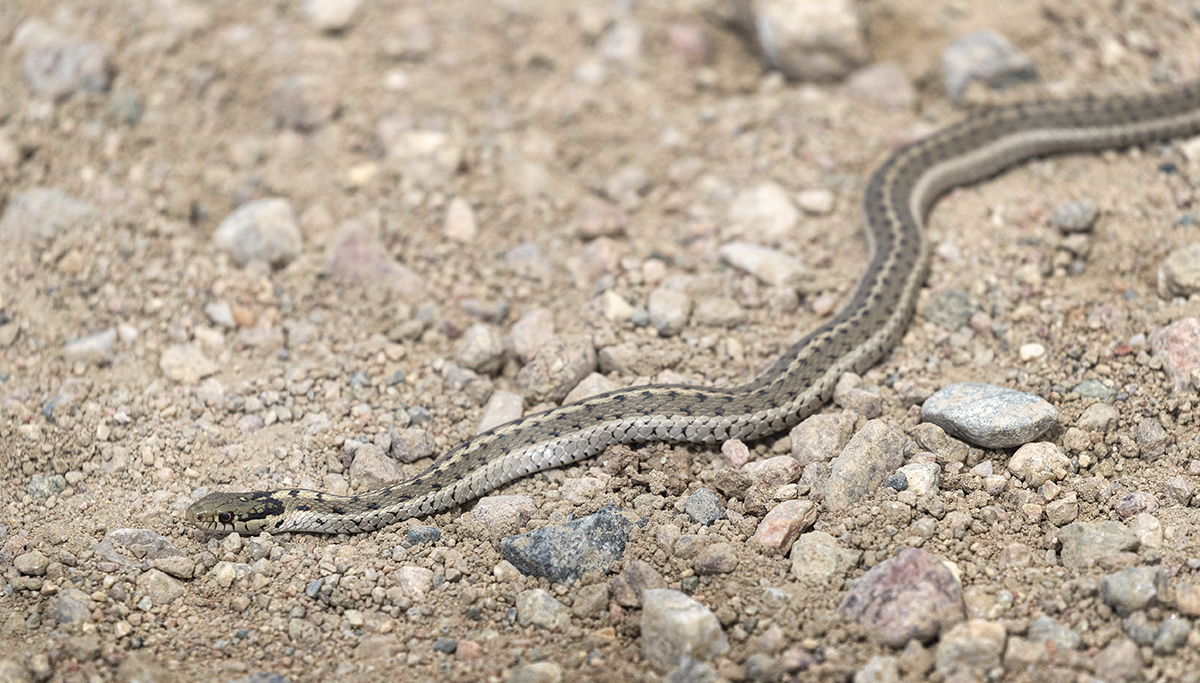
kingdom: Animalia
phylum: Chordata
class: Squamata
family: Colubridae
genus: Thamnophis
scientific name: Thamnophis elegans
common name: Western terrestrial garter snake
